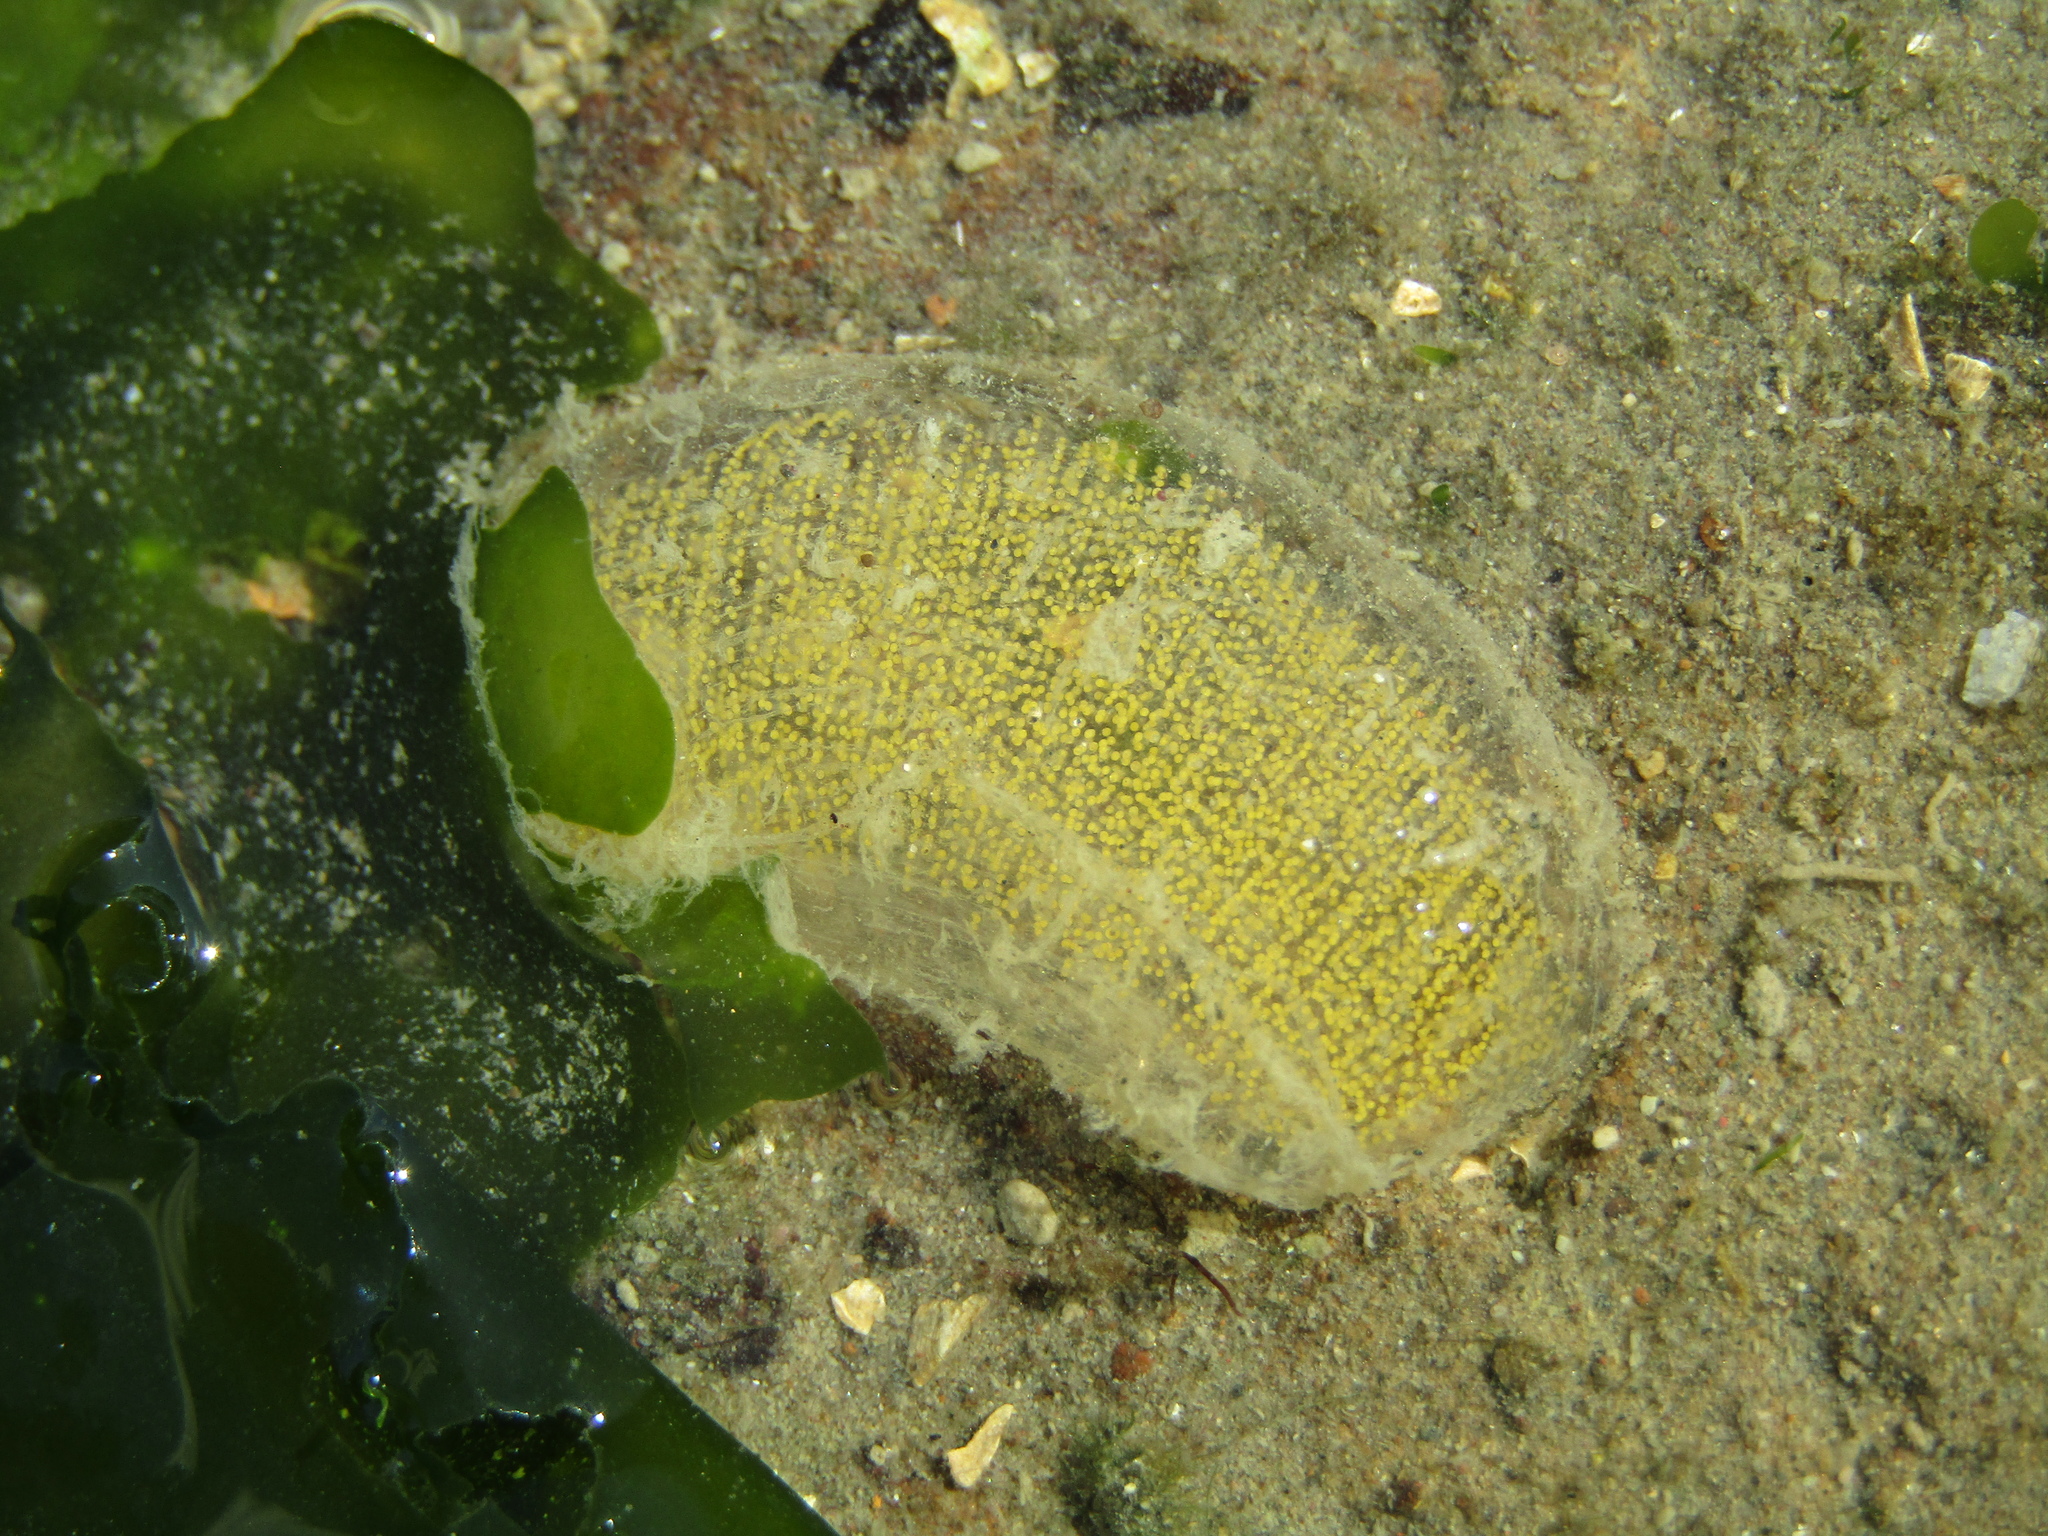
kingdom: Animalia
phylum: Mollusca
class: Gastropoda
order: Cephalaspidea
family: Haminoeidae
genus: Papawera
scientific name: Papawera zelandiae
